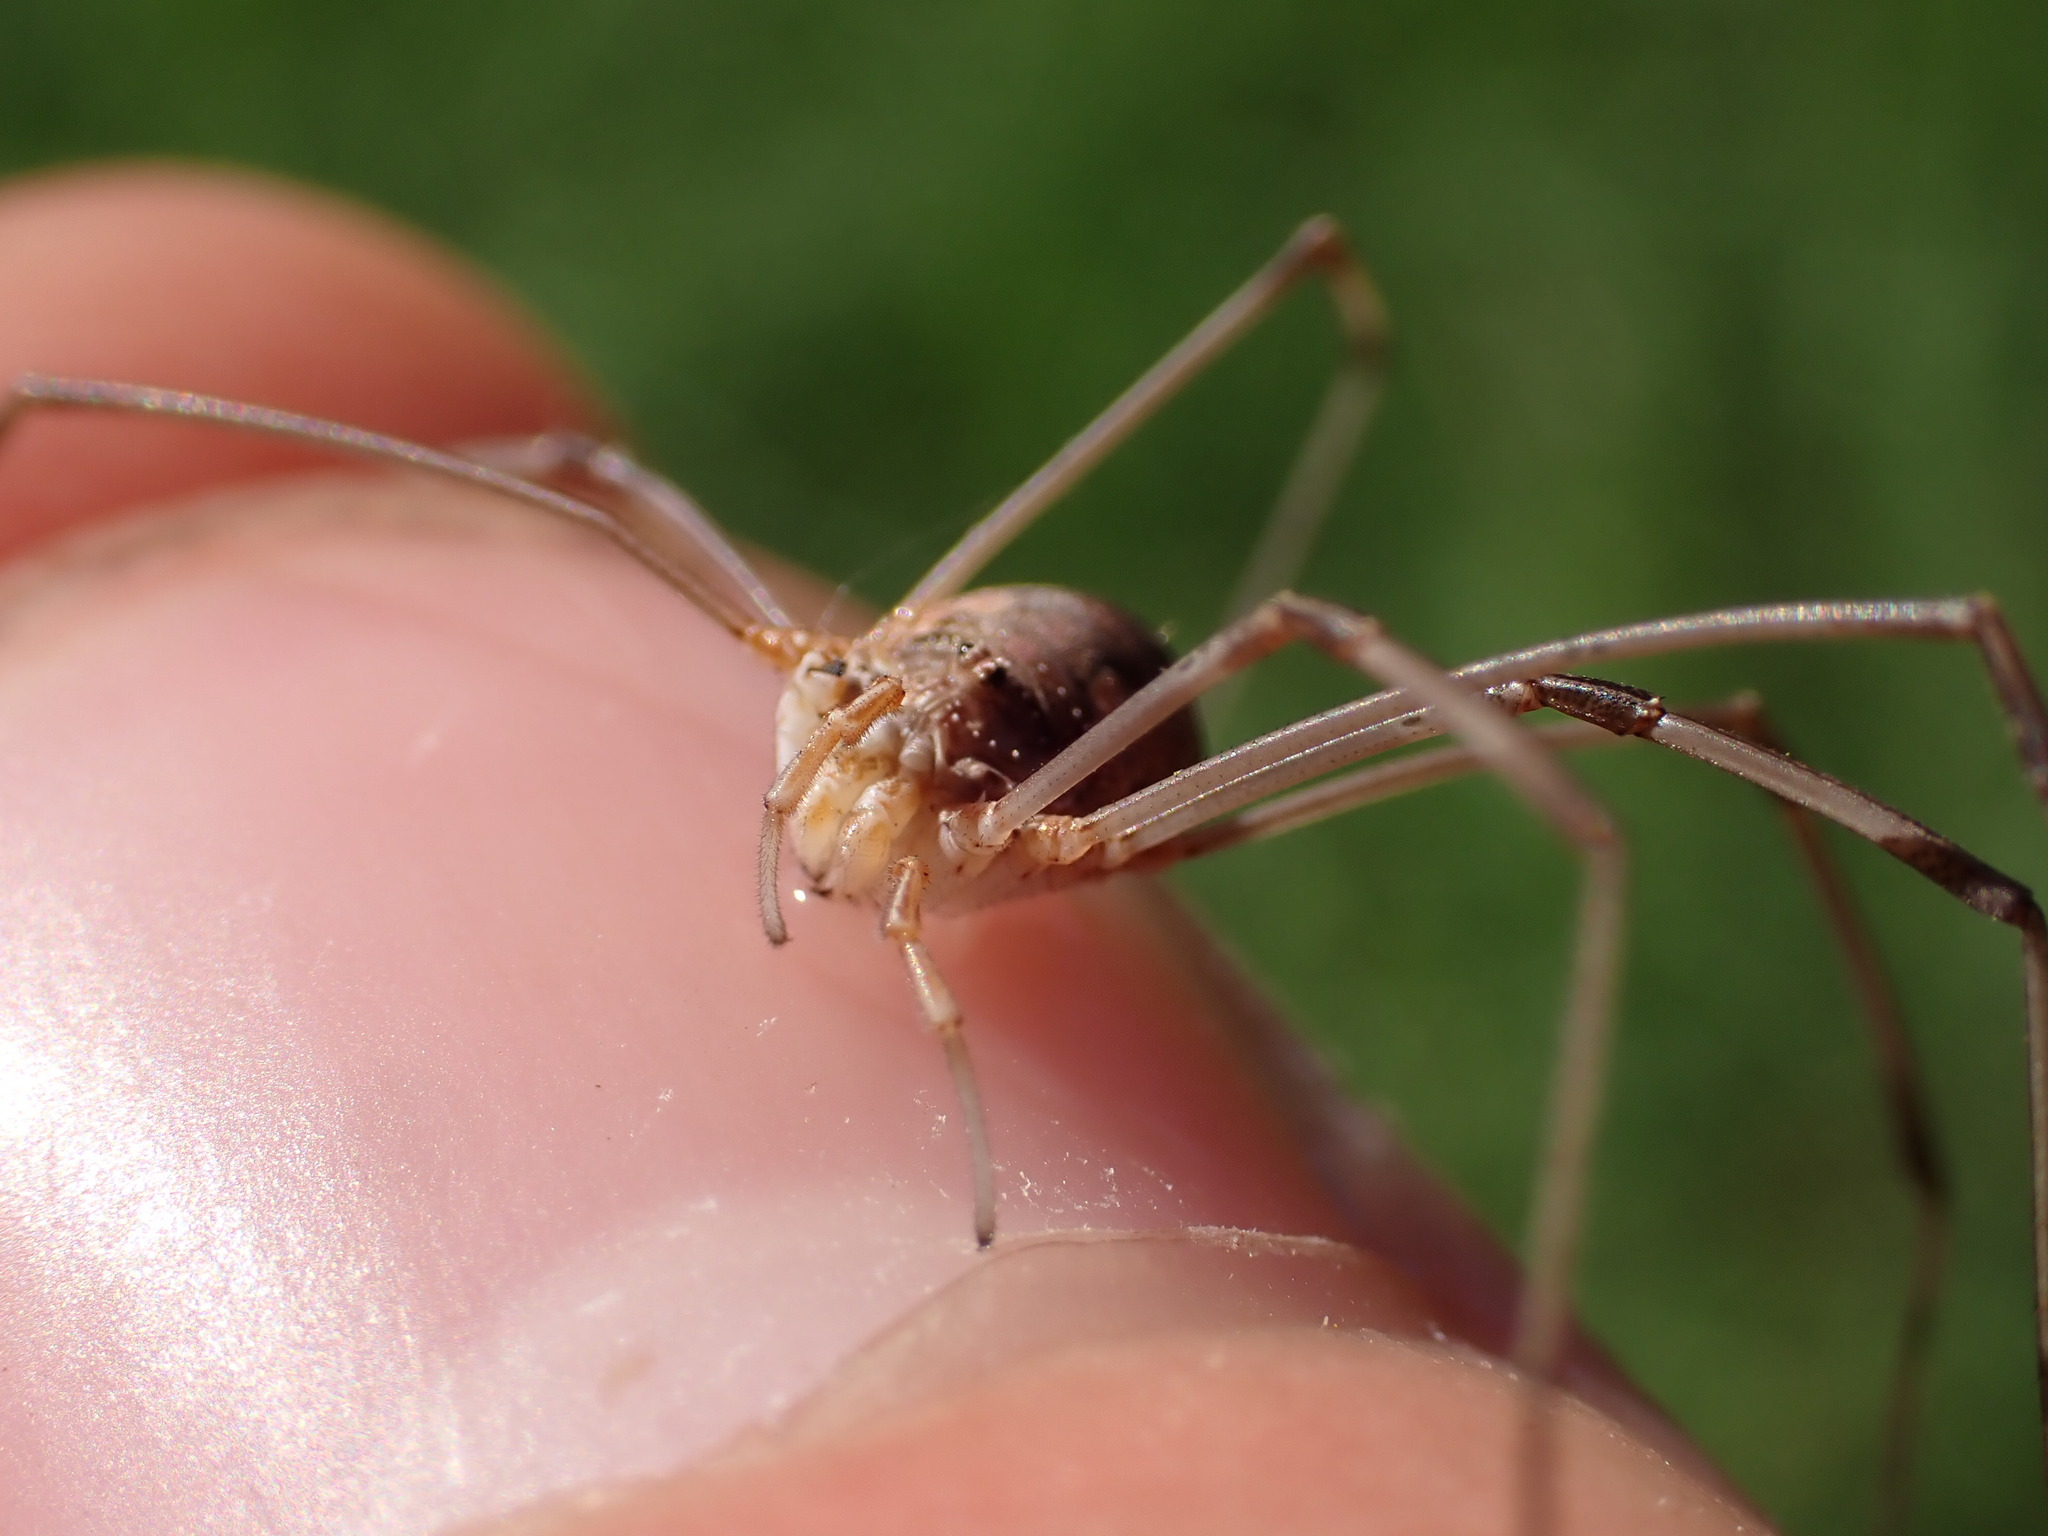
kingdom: Animalia
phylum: Arthropoda
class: Arachnida
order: Opiliones
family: Phalangiidae
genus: Phalangium
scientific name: Phalangium opilio
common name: Daddy longleg
